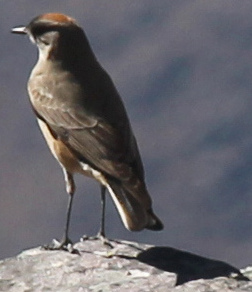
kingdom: Animalia
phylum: Chordata
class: Aves
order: Passeriformes
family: Tyrannidae
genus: Muscisaxicola
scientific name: Muscisaxicola capistratus
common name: Cinnamon-bellied ground tyrant
